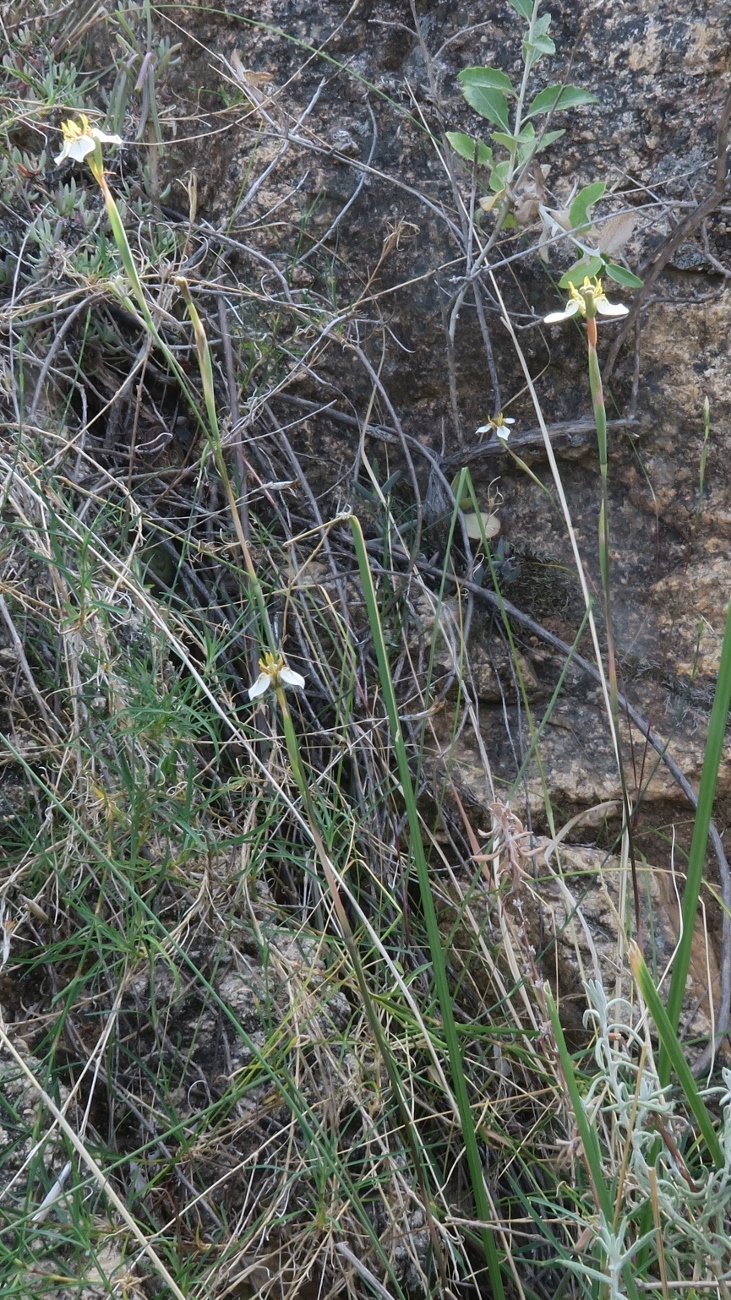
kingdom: Plantae
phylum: Tracheophyta
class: Liliopsida
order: Asparagales
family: Iridaceae
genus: Moraea
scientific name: Moraea unguiculata
